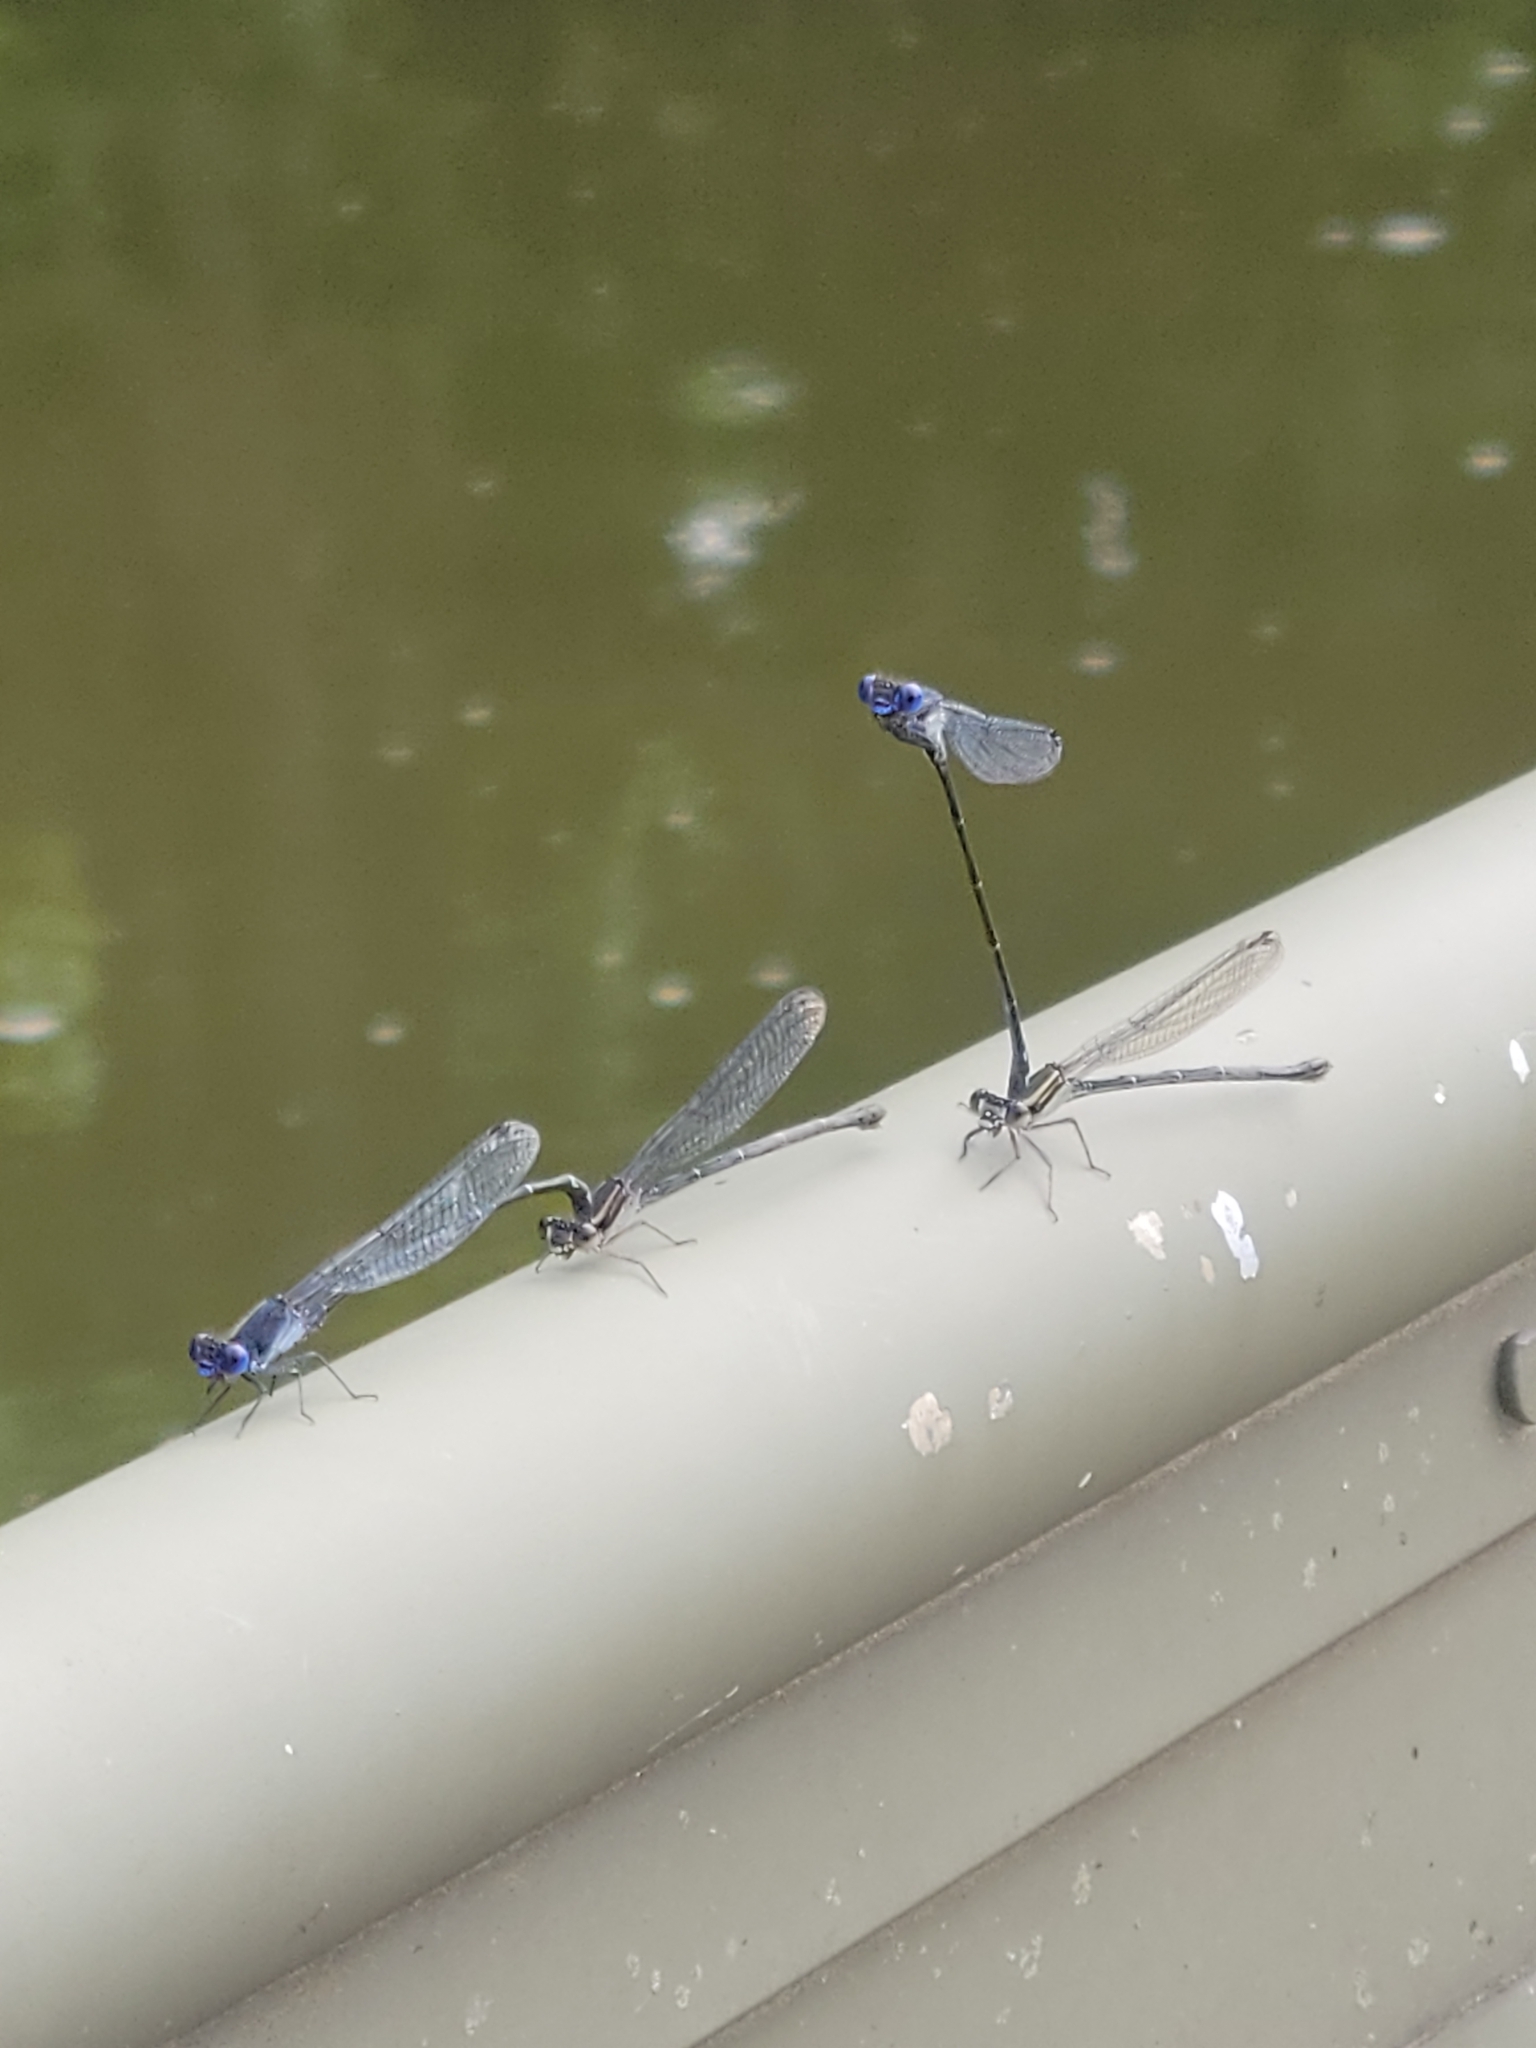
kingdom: Animalia
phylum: Arthropoda
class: Insecta
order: Odonata
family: Coenagrionidae
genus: Argia
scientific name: Argia translata
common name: Dusky dancer
